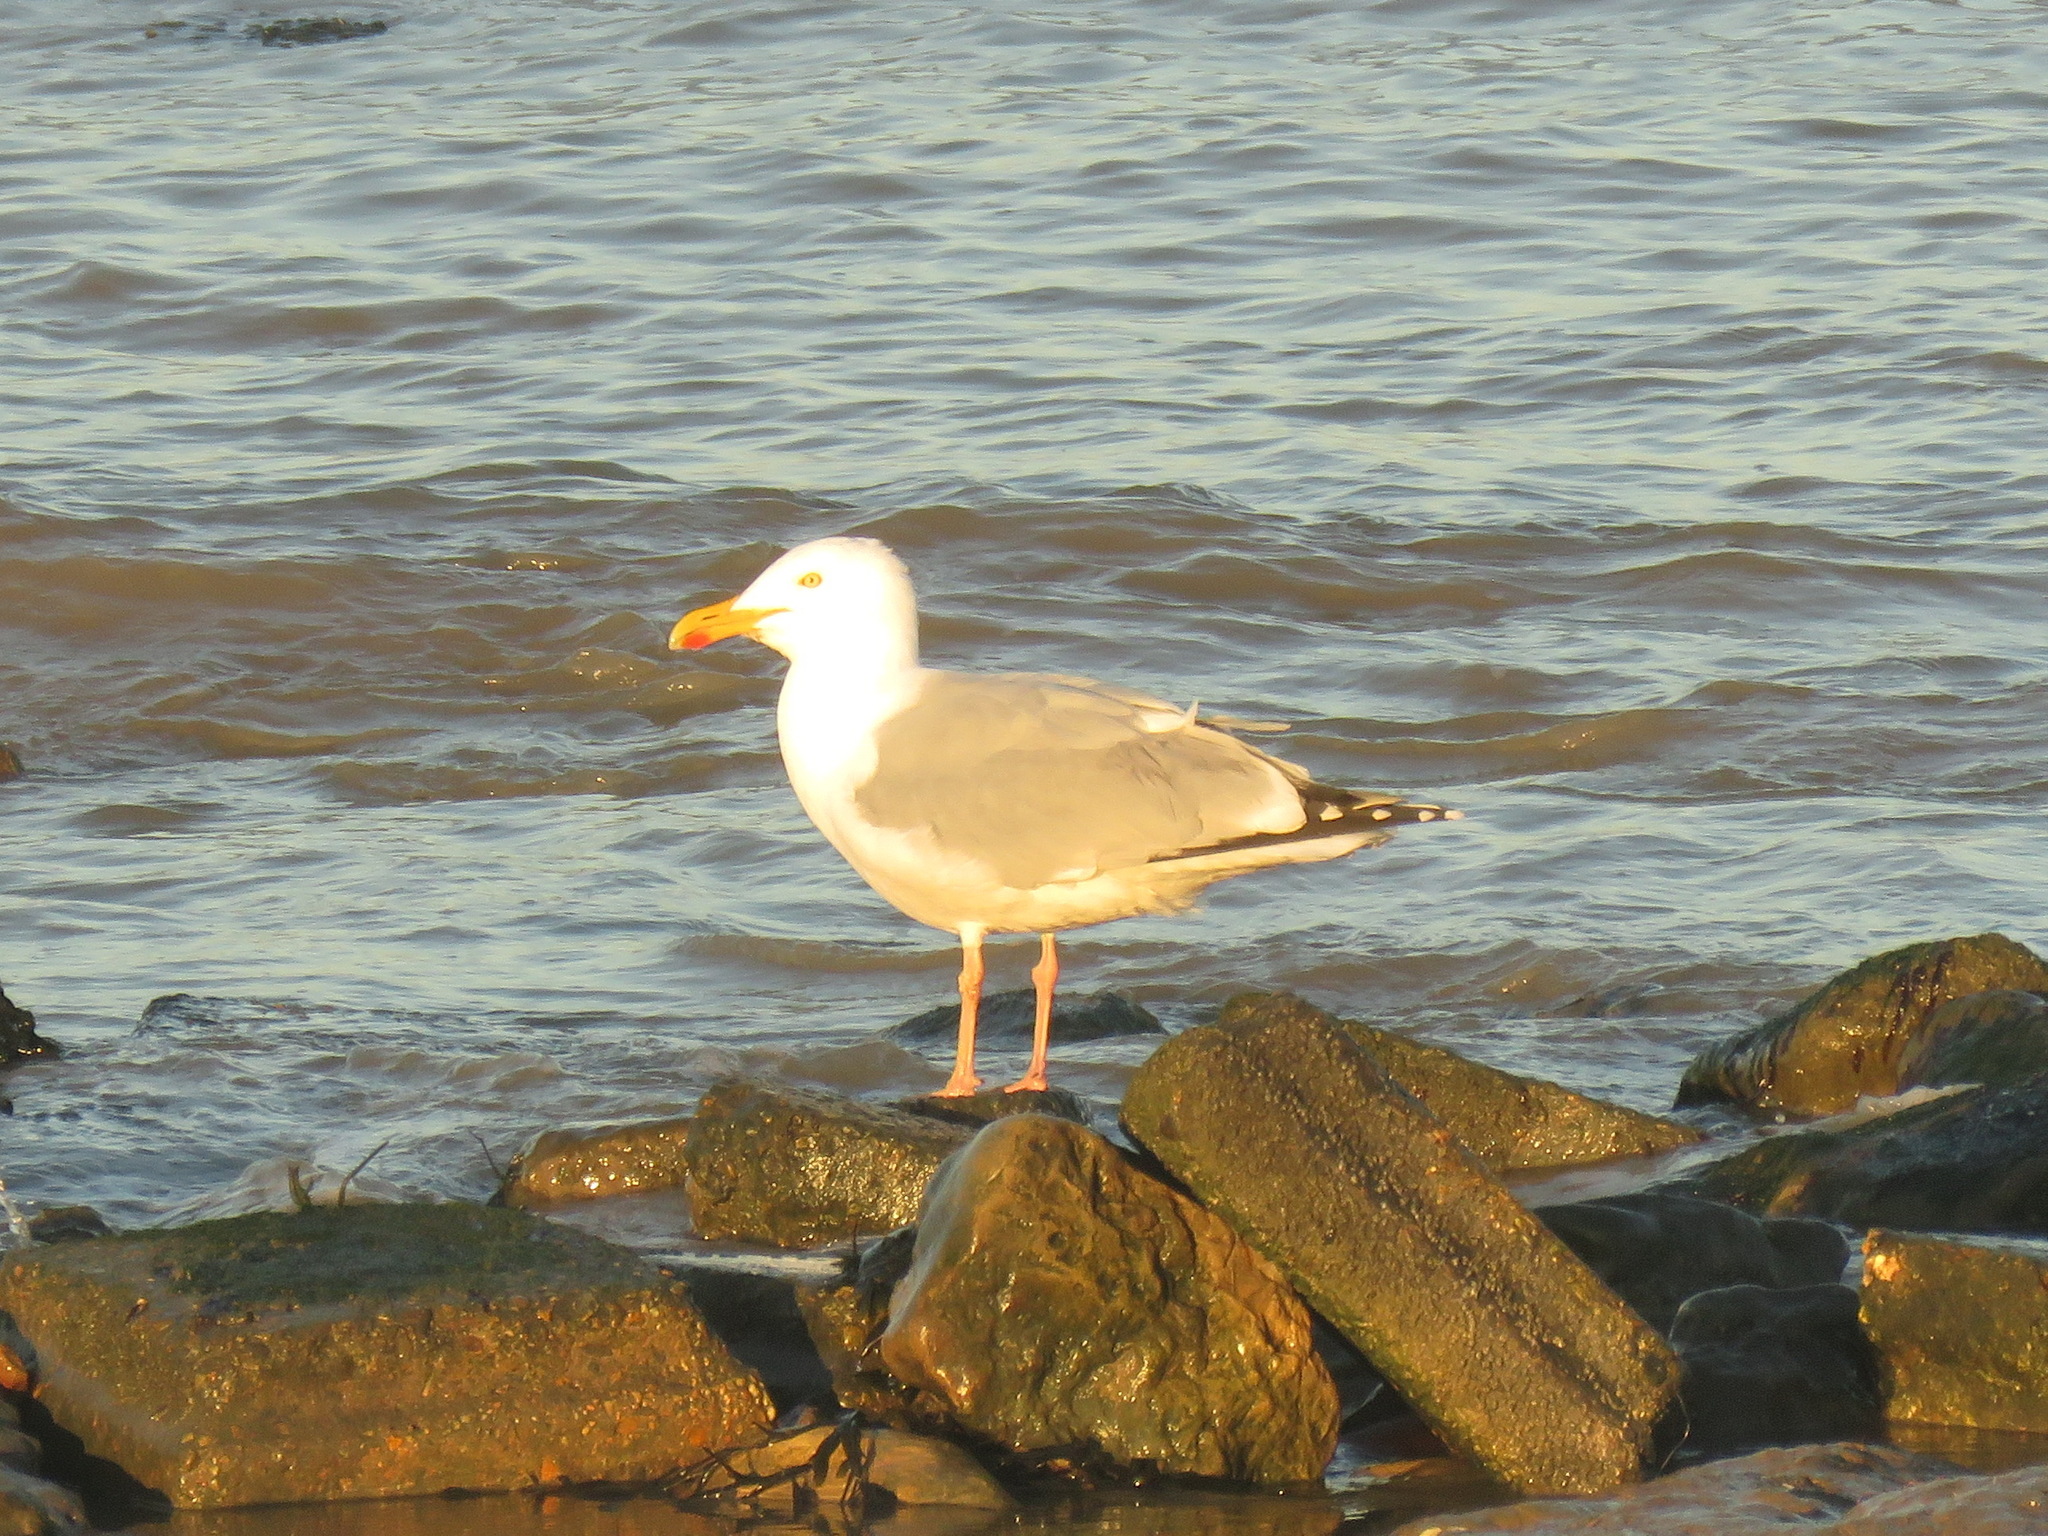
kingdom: Animalia
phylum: Chordata
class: Aves
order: Charadriiformes
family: Laridae
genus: Larus
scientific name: Larus argentatus
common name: Herring gull
